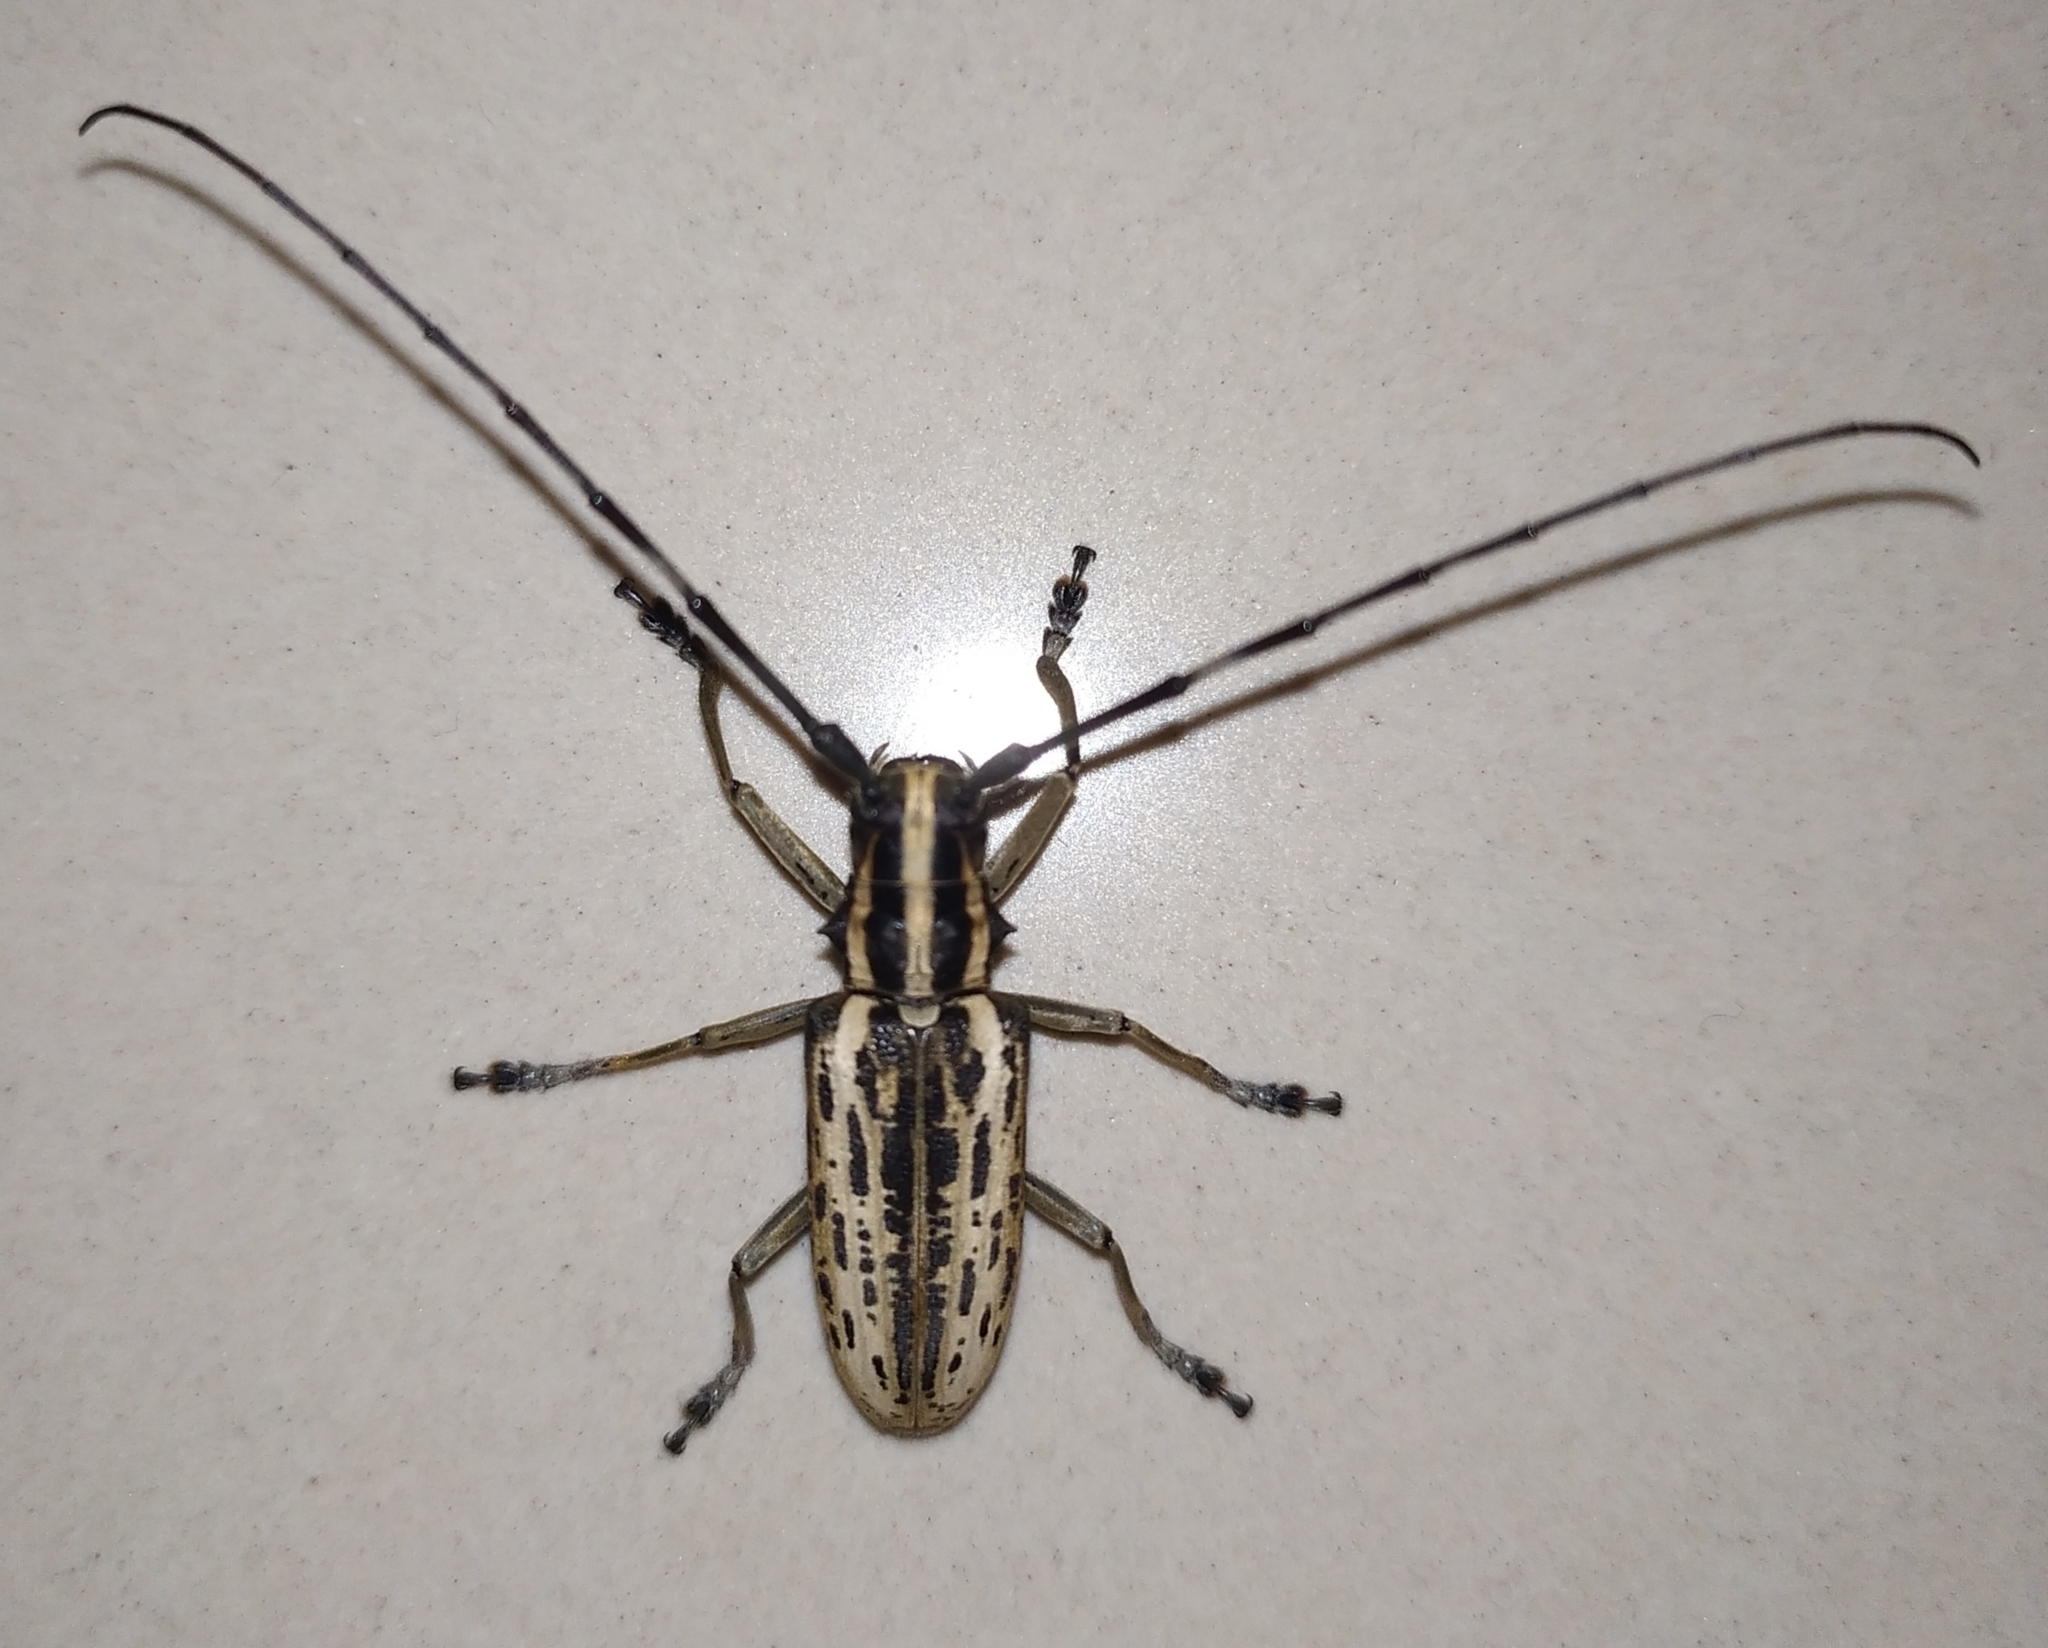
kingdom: Animalia
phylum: Arthropoda
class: Insecta
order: Coleoptera
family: Cerambycidae
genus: Epepeotes
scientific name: Epepeotes uncinatus
